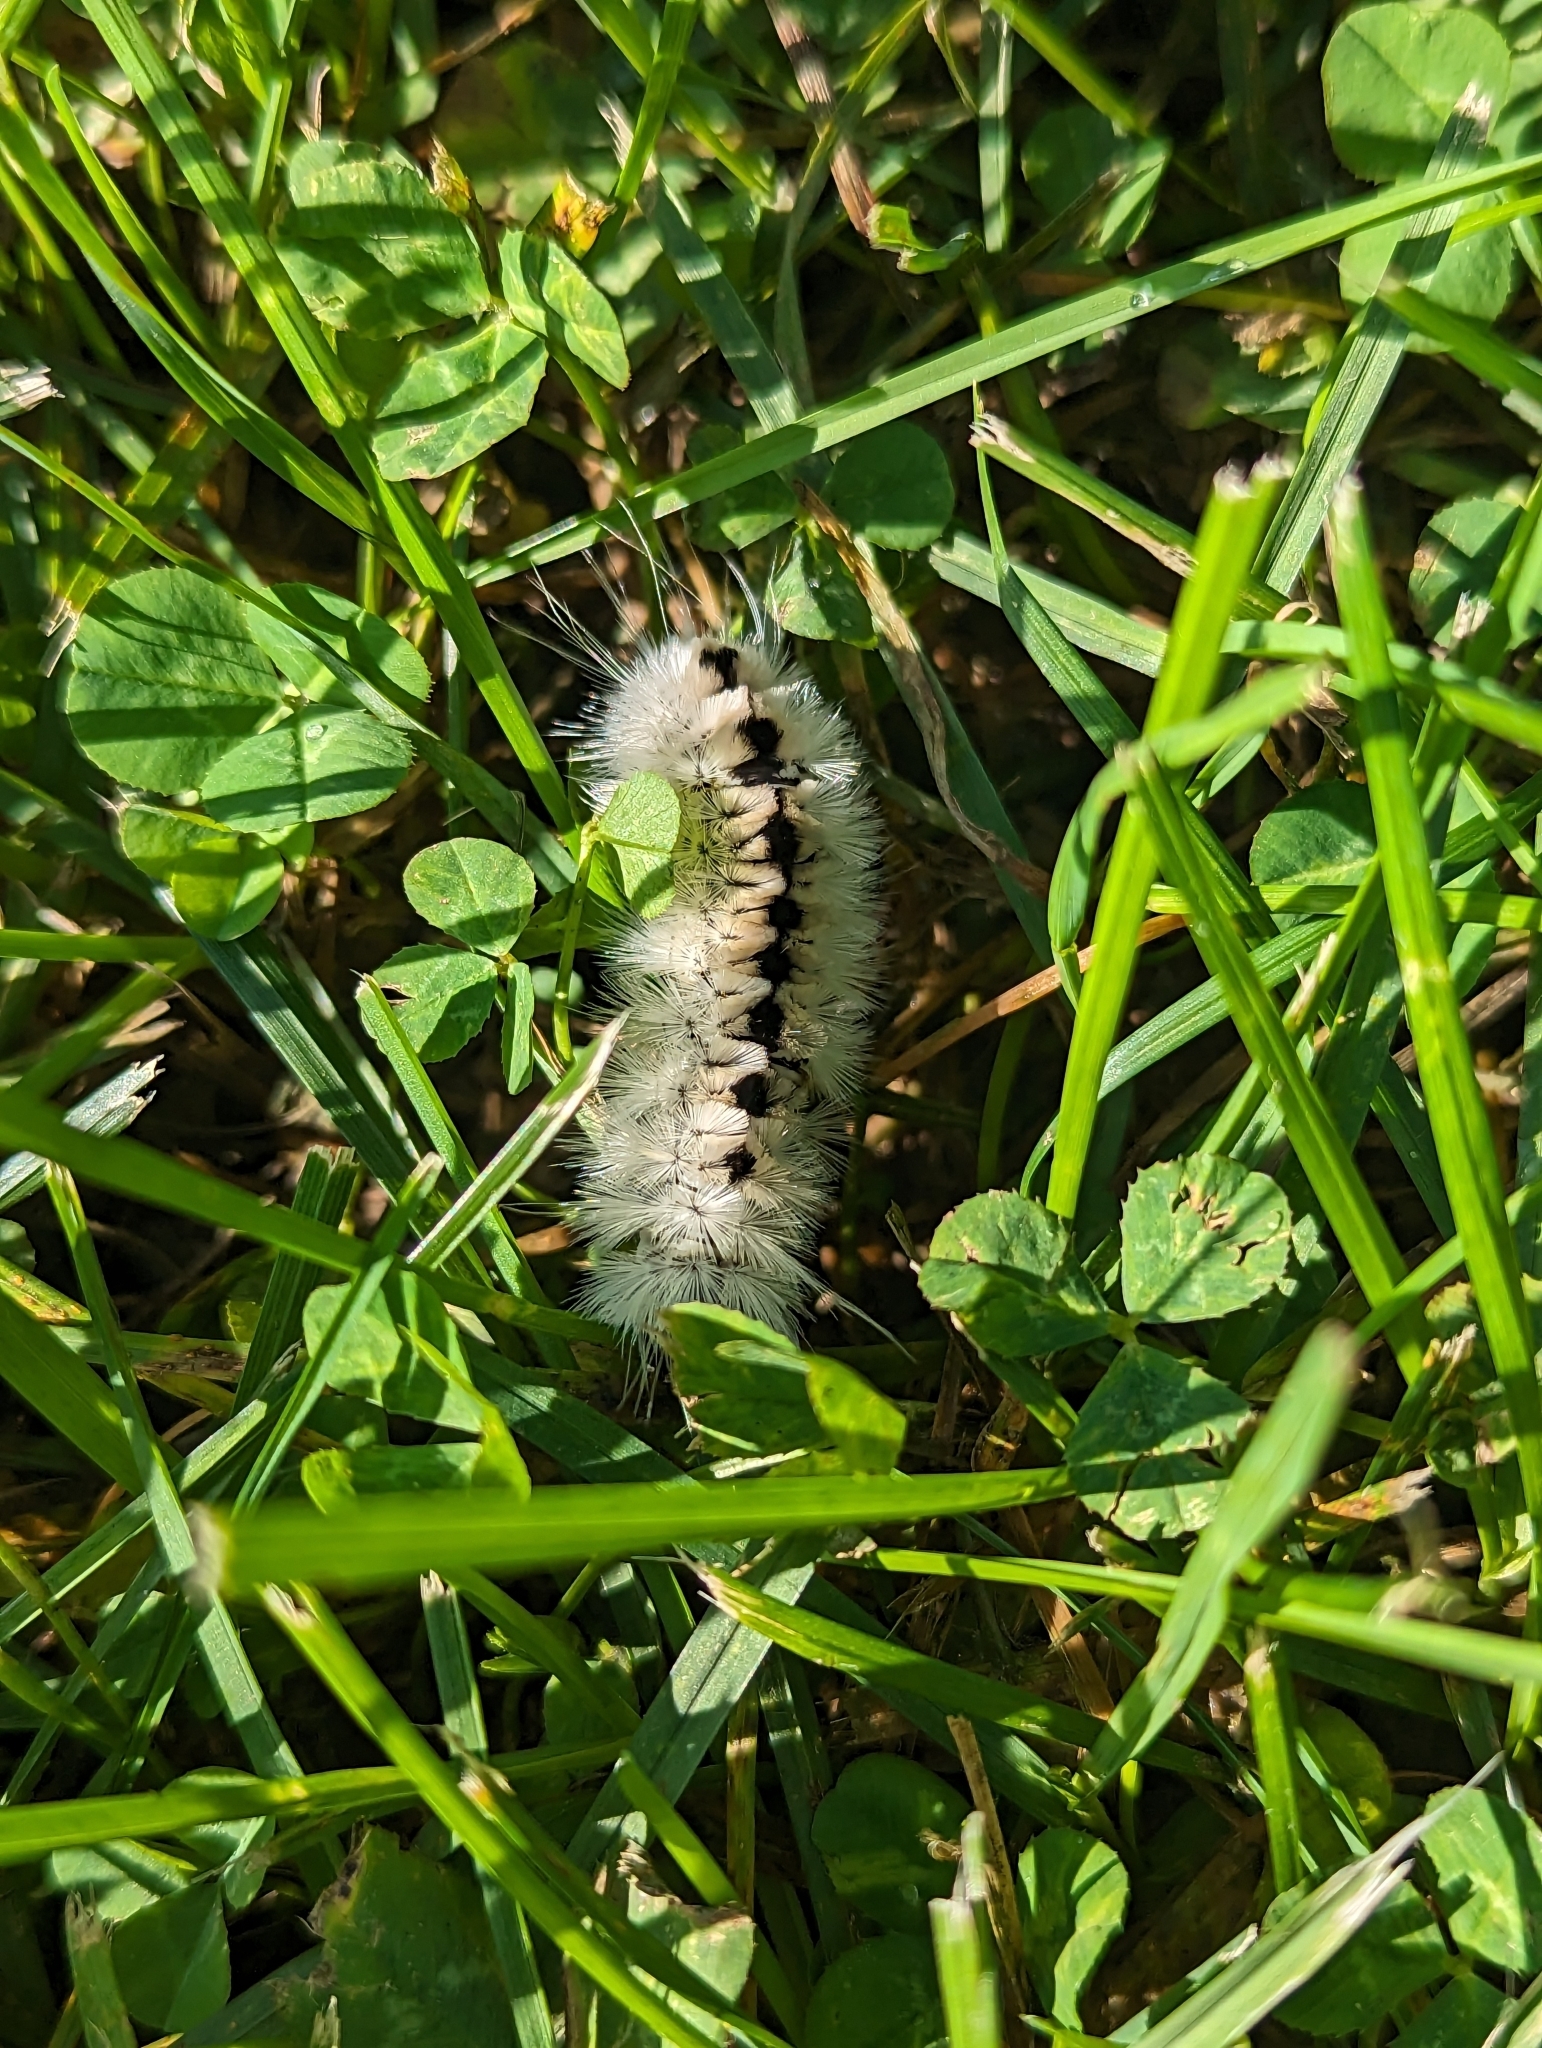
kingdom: Animalia
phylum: Arthropoda
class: Insecta
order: Lepidoptera
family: Erebidae
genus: Lophocampa
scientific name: Lophocampa caryae
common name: Hickory tussock moth
